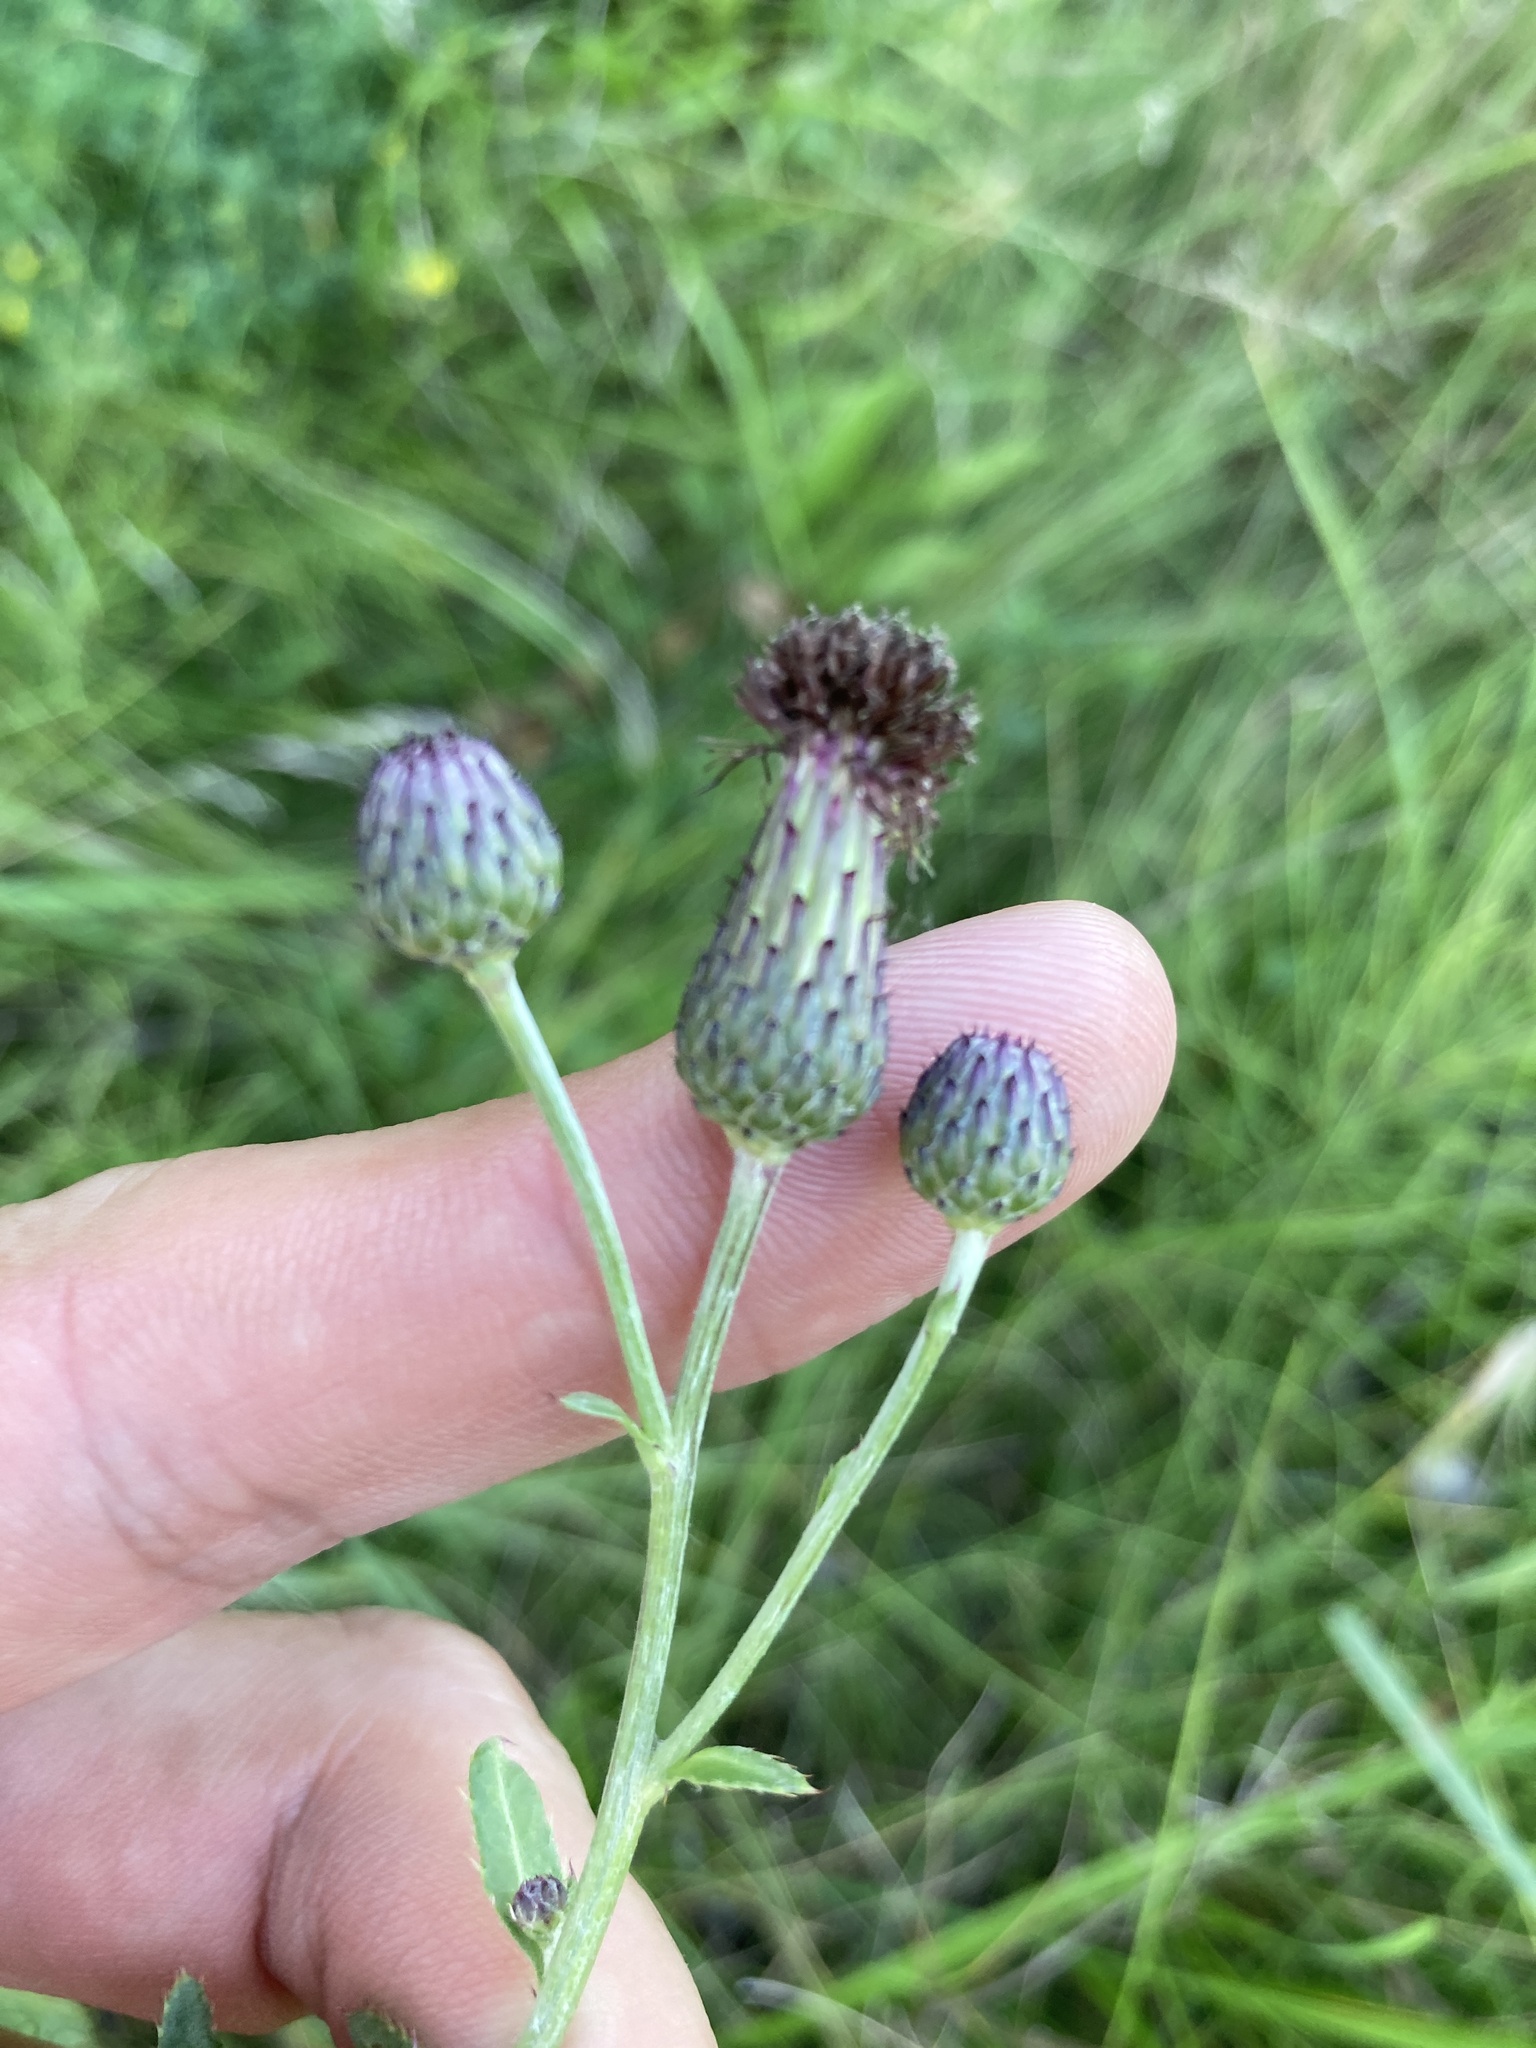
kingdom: Plantae
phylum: Tracheophyta
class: Magnoliopsida
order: Asterales
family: Asteraceae
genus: Cirsium
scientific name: Cirsium arvense
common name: Creeping thistle
